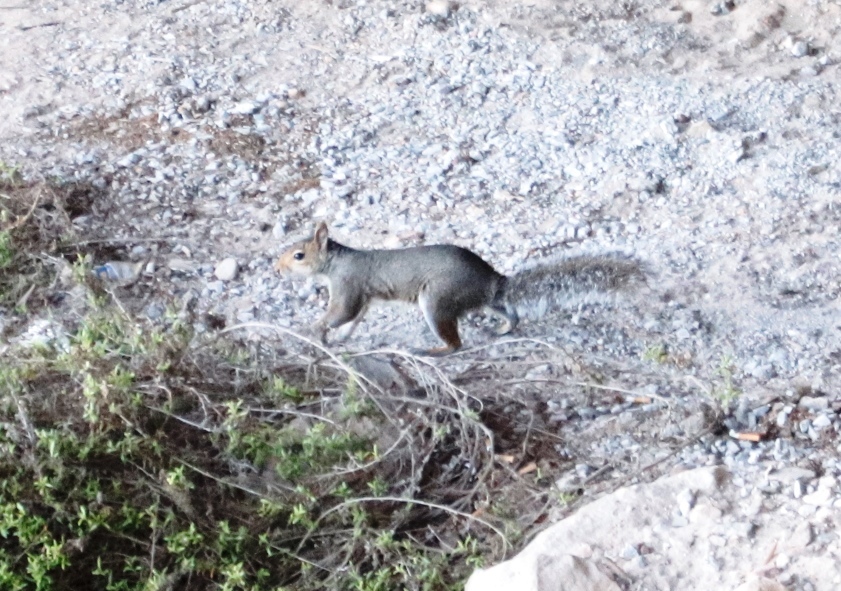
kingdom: Animalia
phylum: Chordata
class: Mammalia
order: Rodentia
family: Sciuridae
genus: Sciurus
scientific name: Sciurus carolinensis
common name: Eastern gray squirrel
